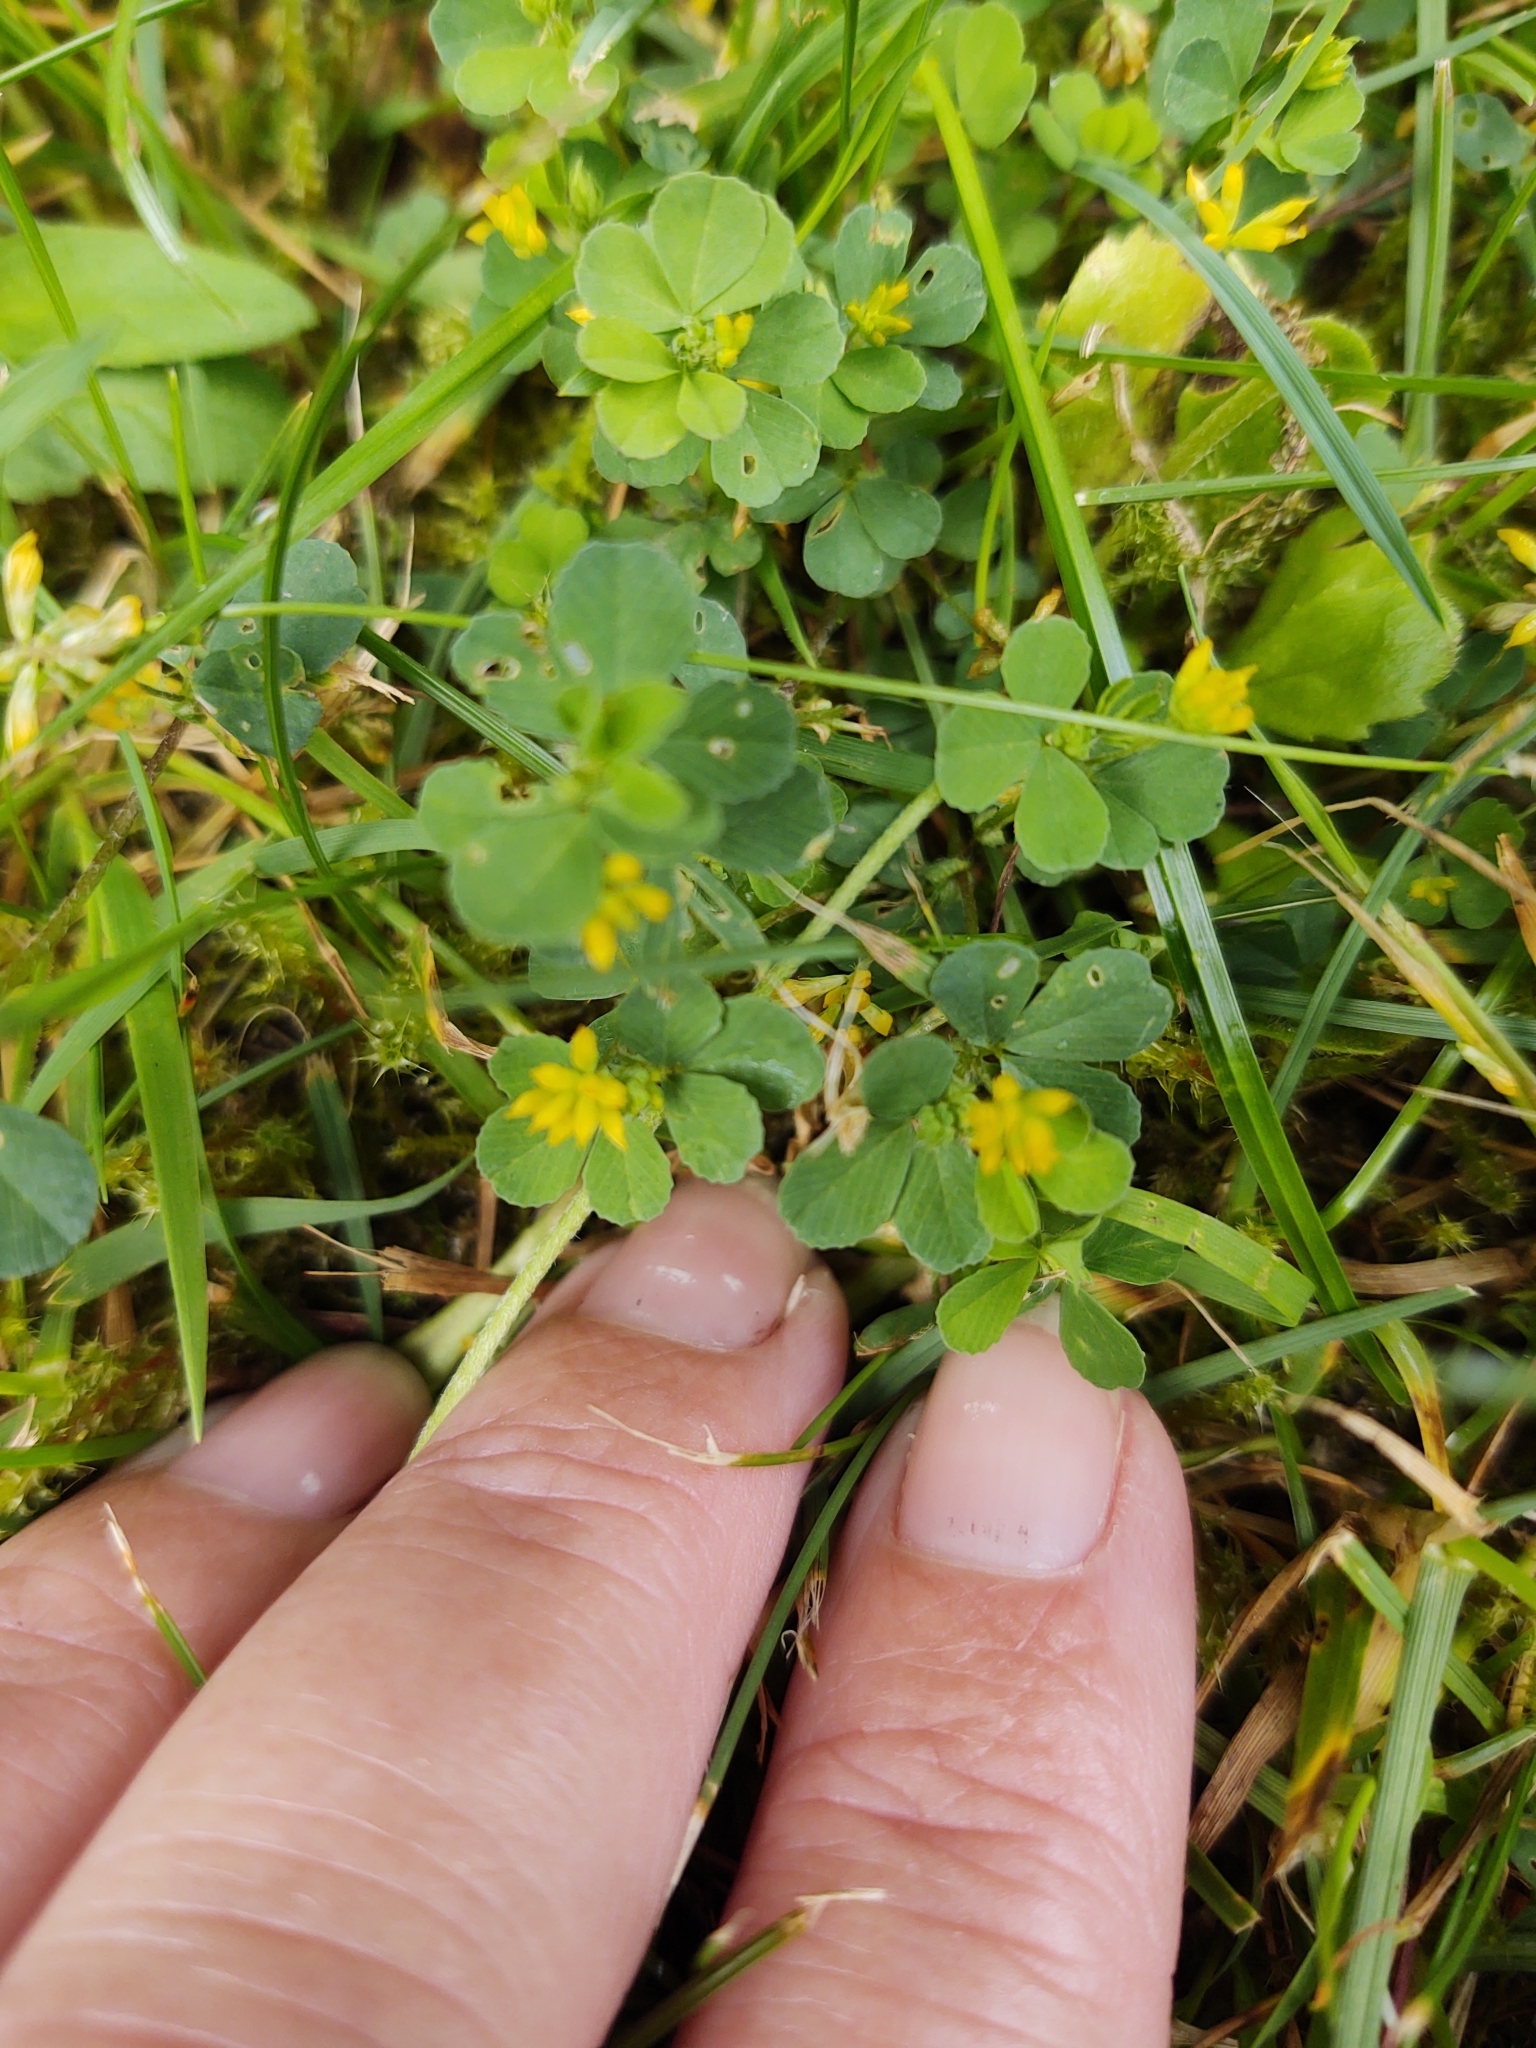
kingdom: Plantae
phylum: Tracheophyta
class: Magnoliopsida
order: Fabales
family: Fabaceae
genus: Trifolium
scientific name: Trifolium dubium
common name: Suckling clover
